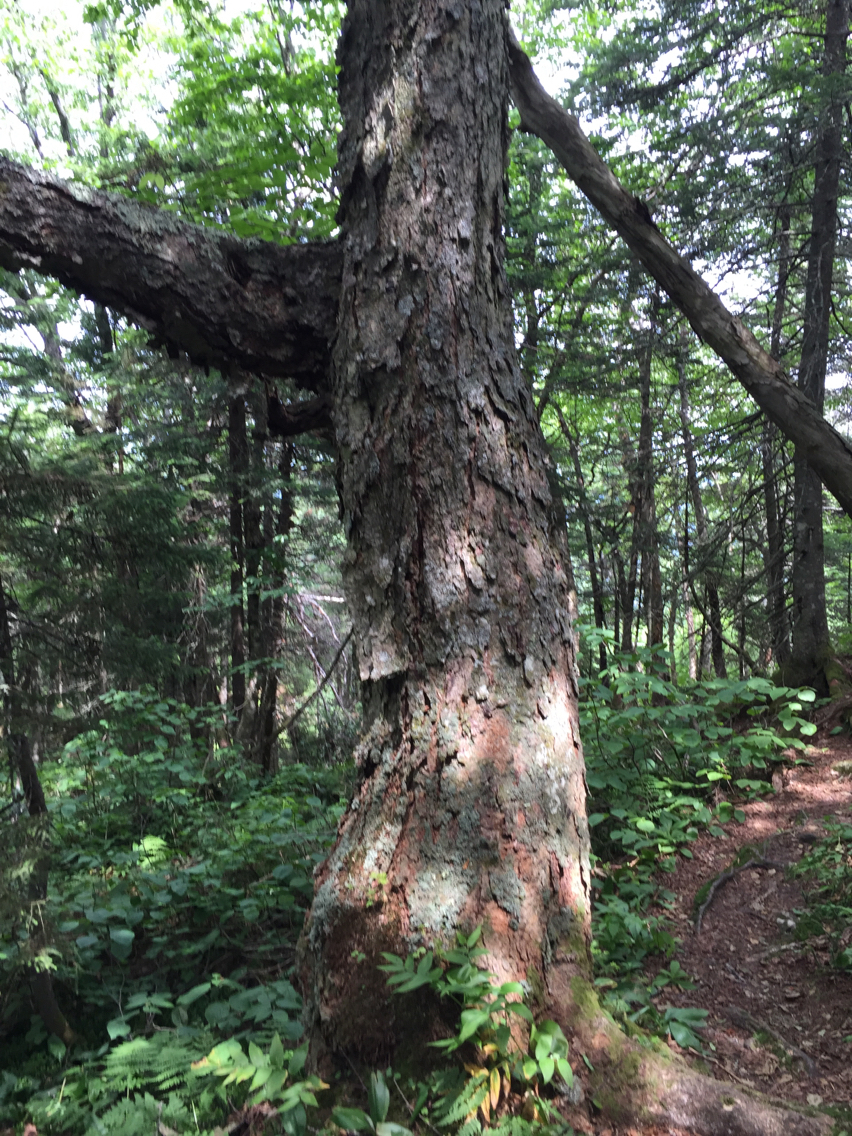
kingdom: Plantae
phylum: Tracheophyta
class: Magnoliopsida
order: Fagales
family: Betulaceae
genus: Betula
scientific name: Betula alleghaniensis
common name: Yellow birch
